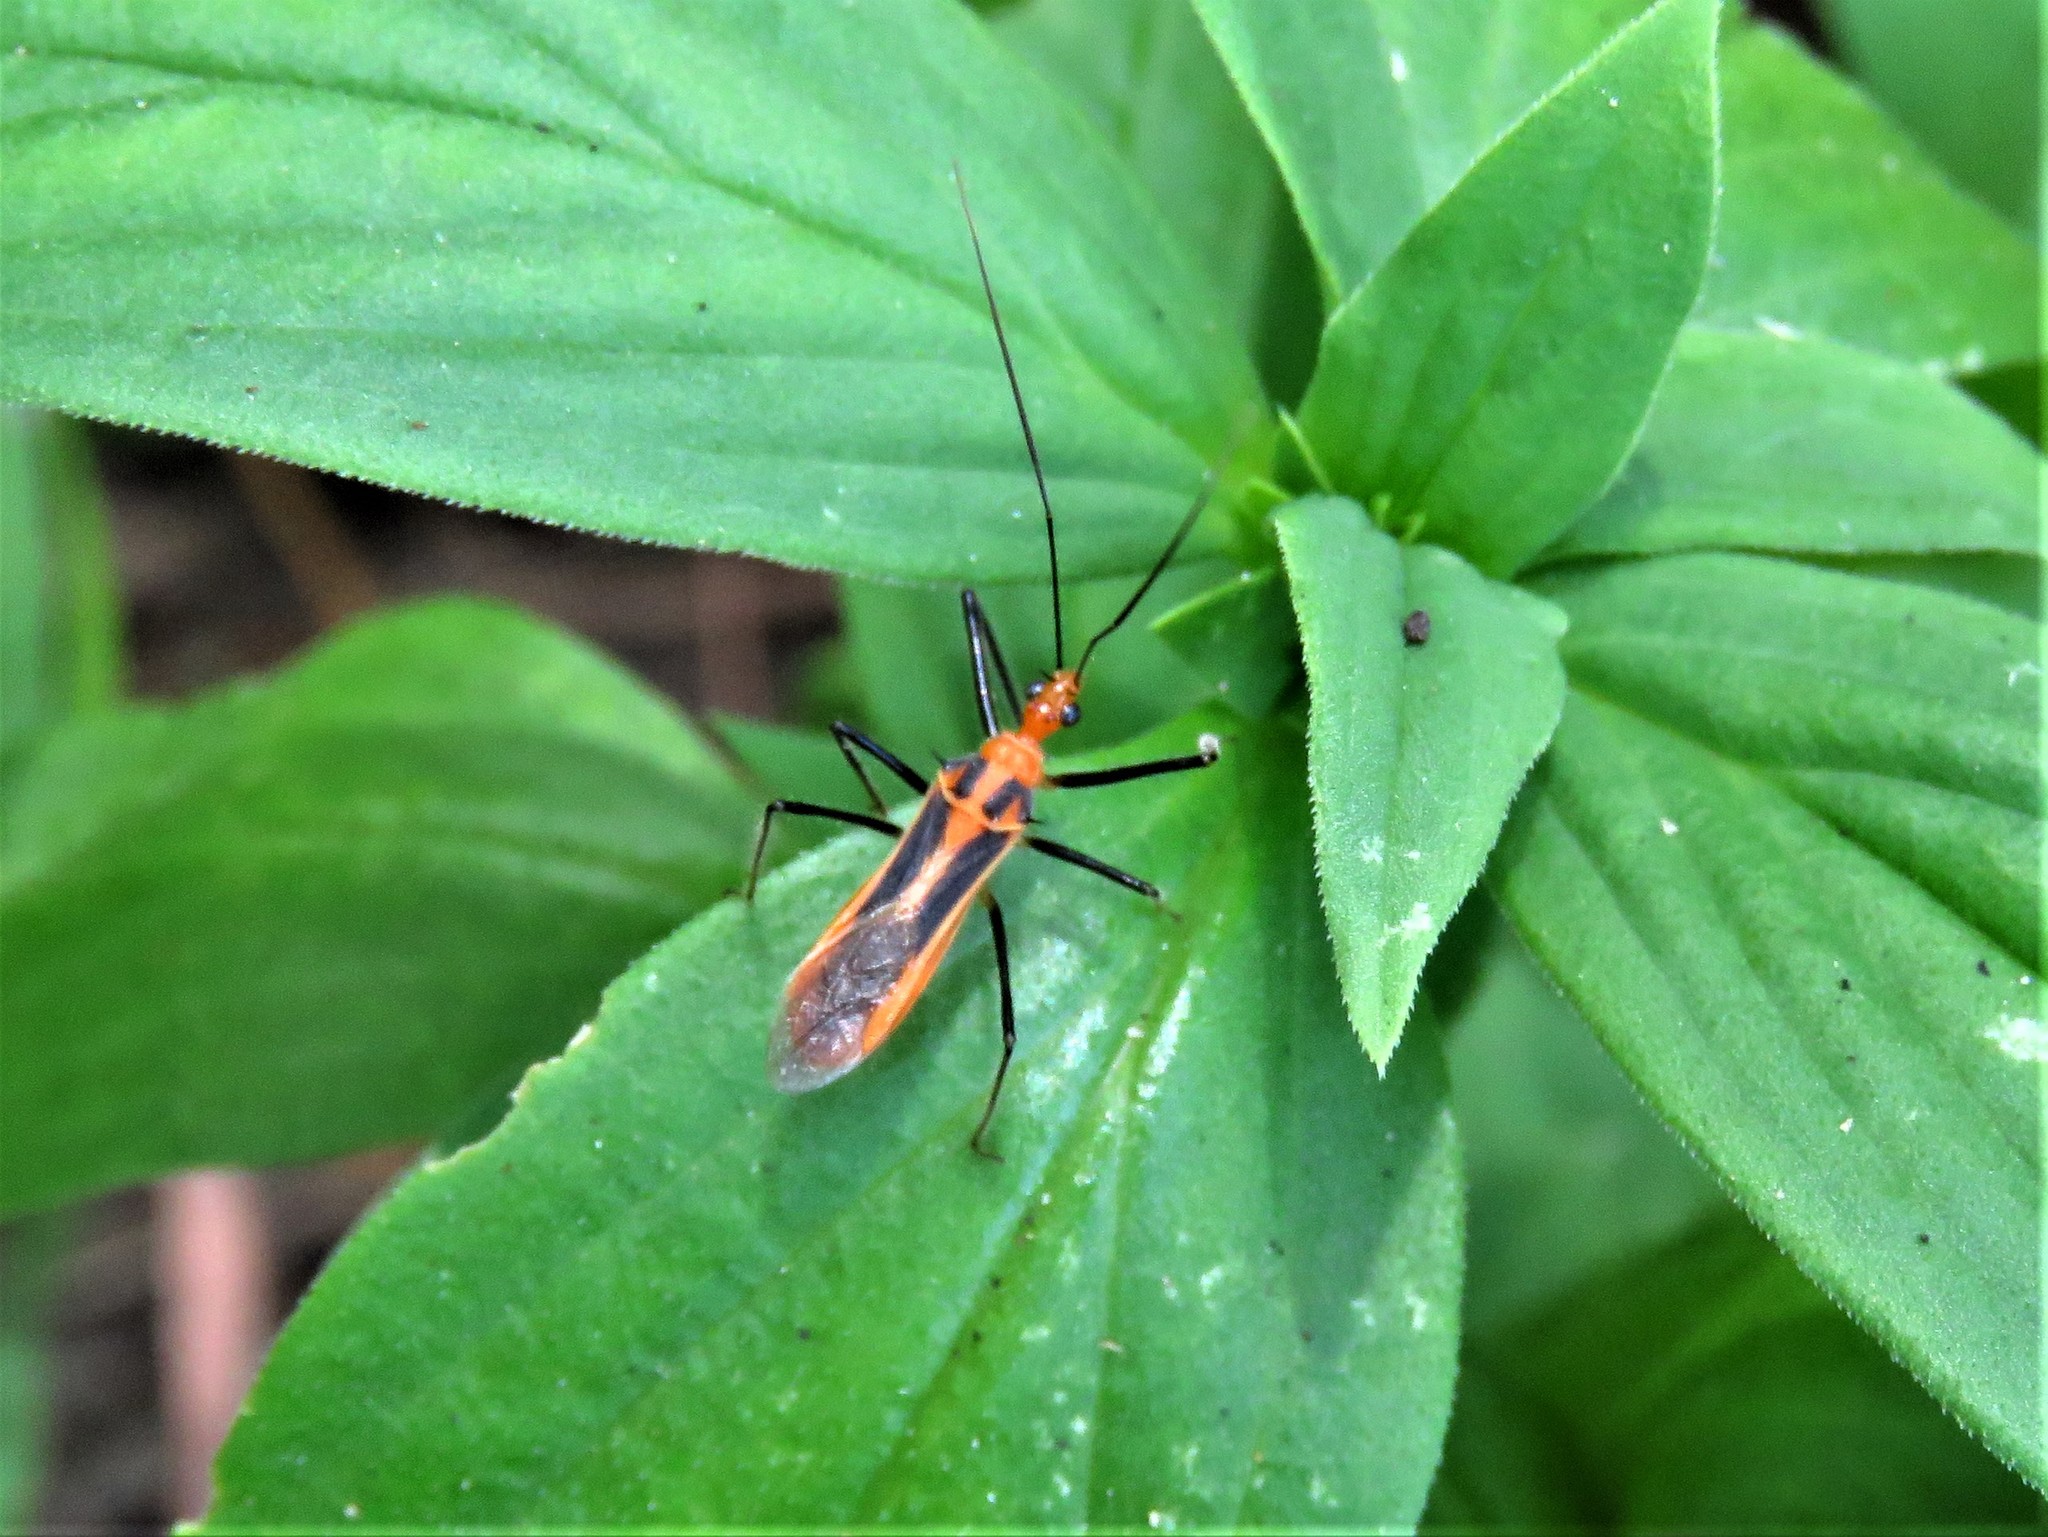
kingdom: Animalia
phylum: Arthropoda
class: Insecta
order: Hemiptera
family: Reduviidae
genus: Repipta
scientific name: Repipta taurus
